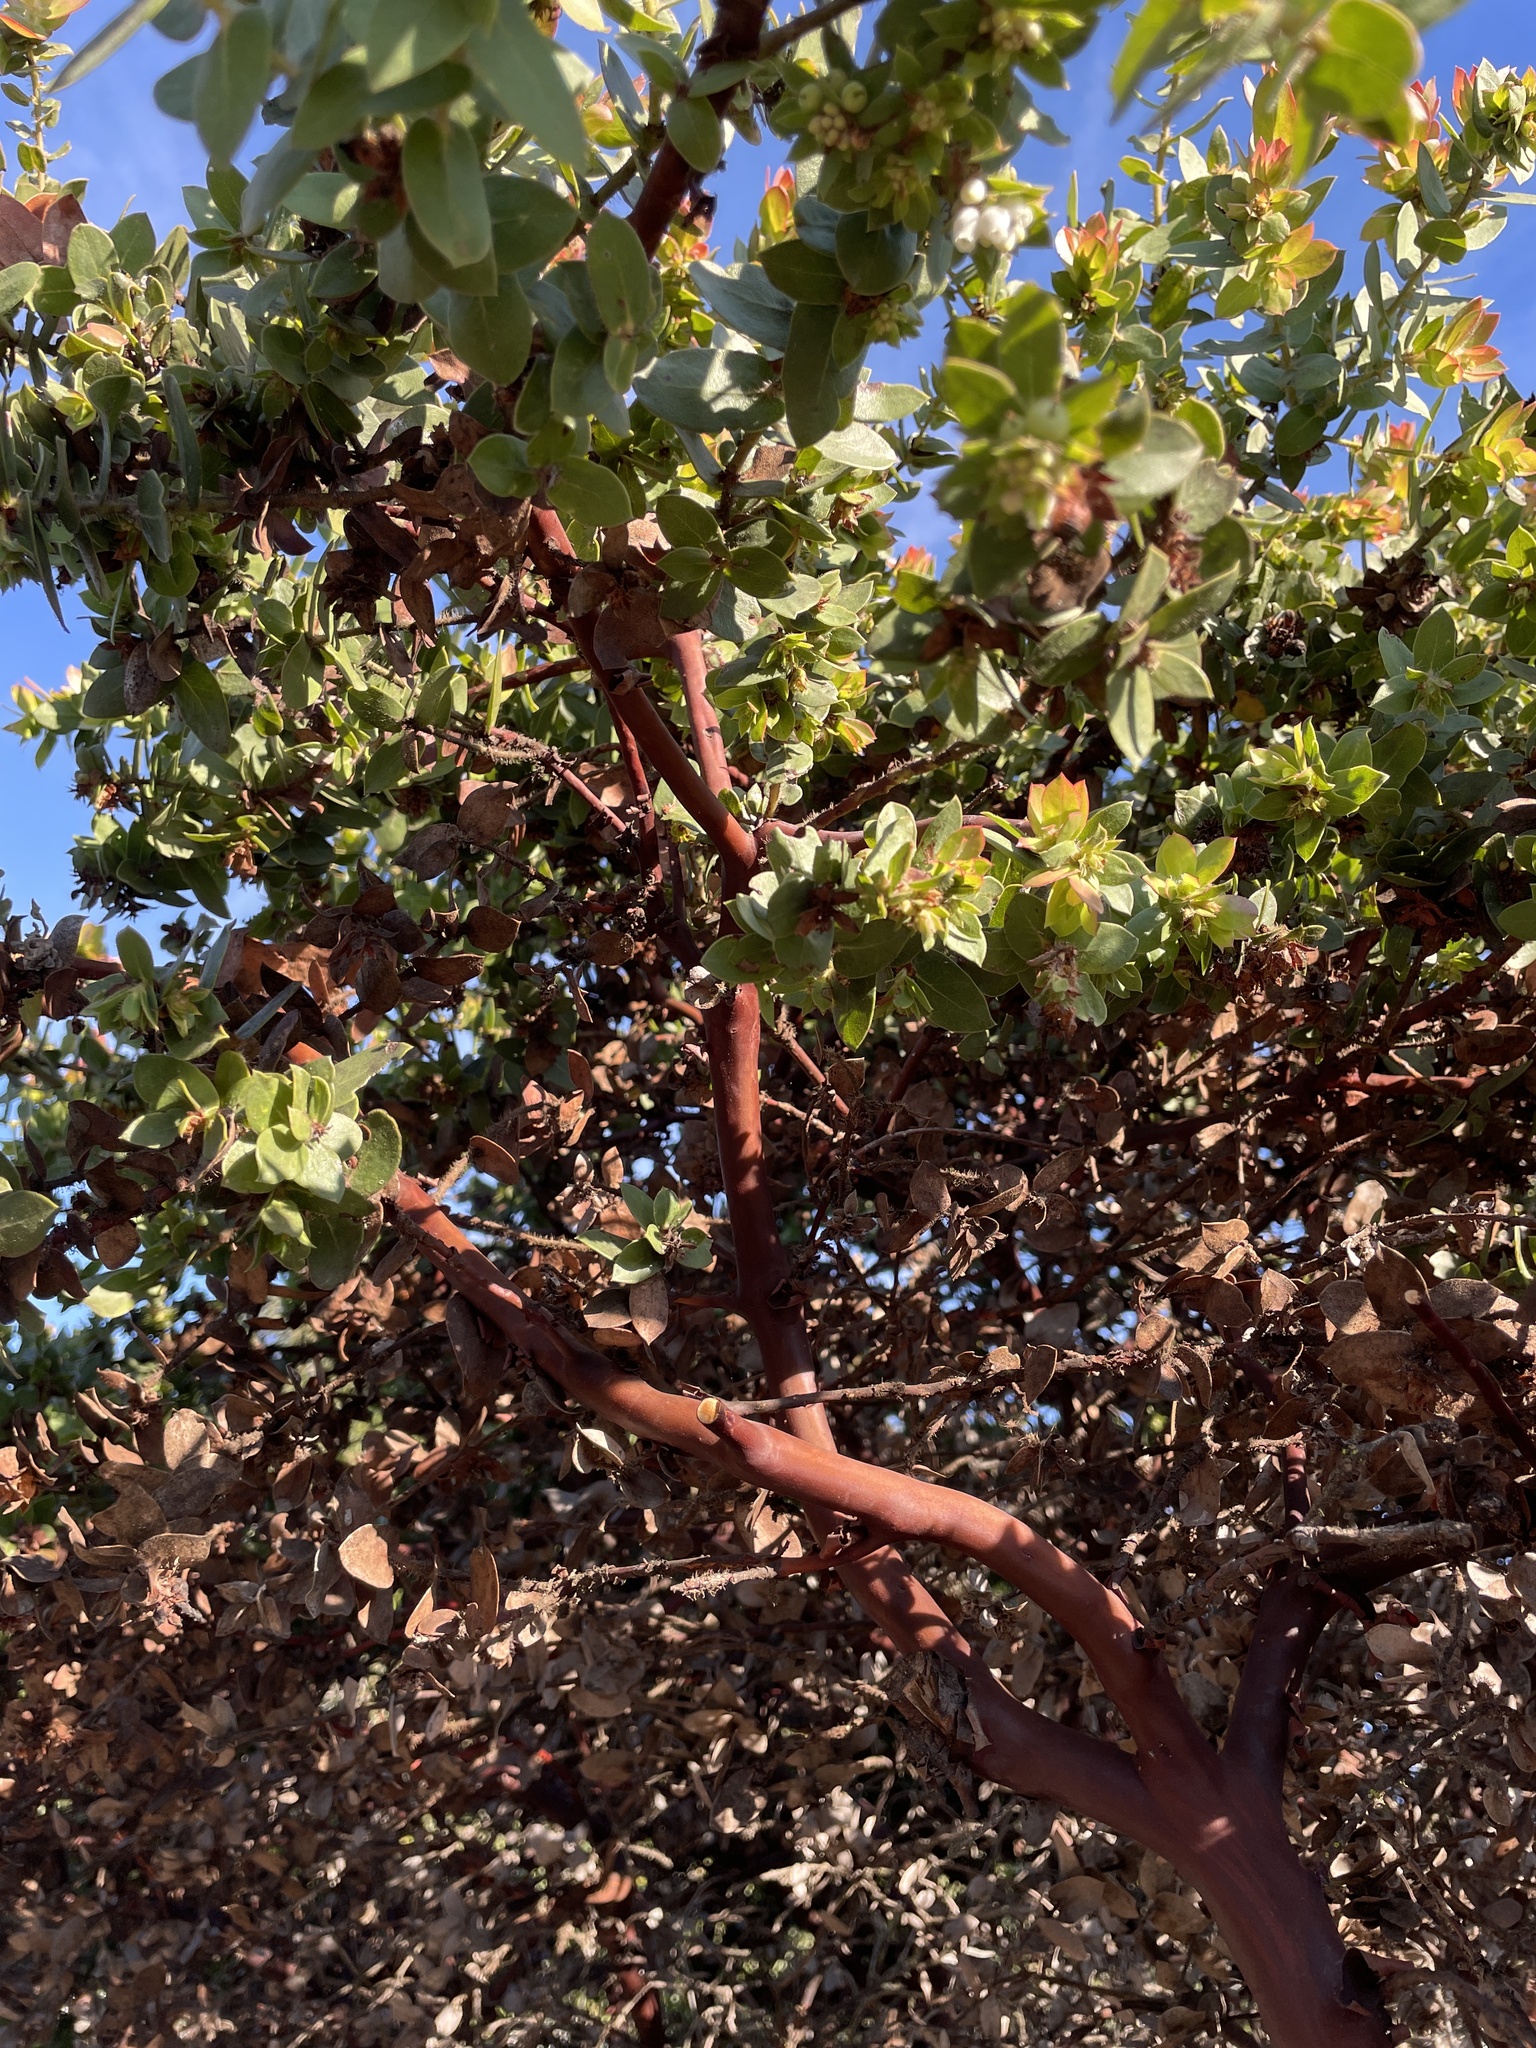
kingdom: Plantae
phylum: Tracheophyta
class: Magnoliopsida
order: Ericales
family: Ericaceae
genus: Arctostaphylos
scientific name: Arctostaphylos purissima
